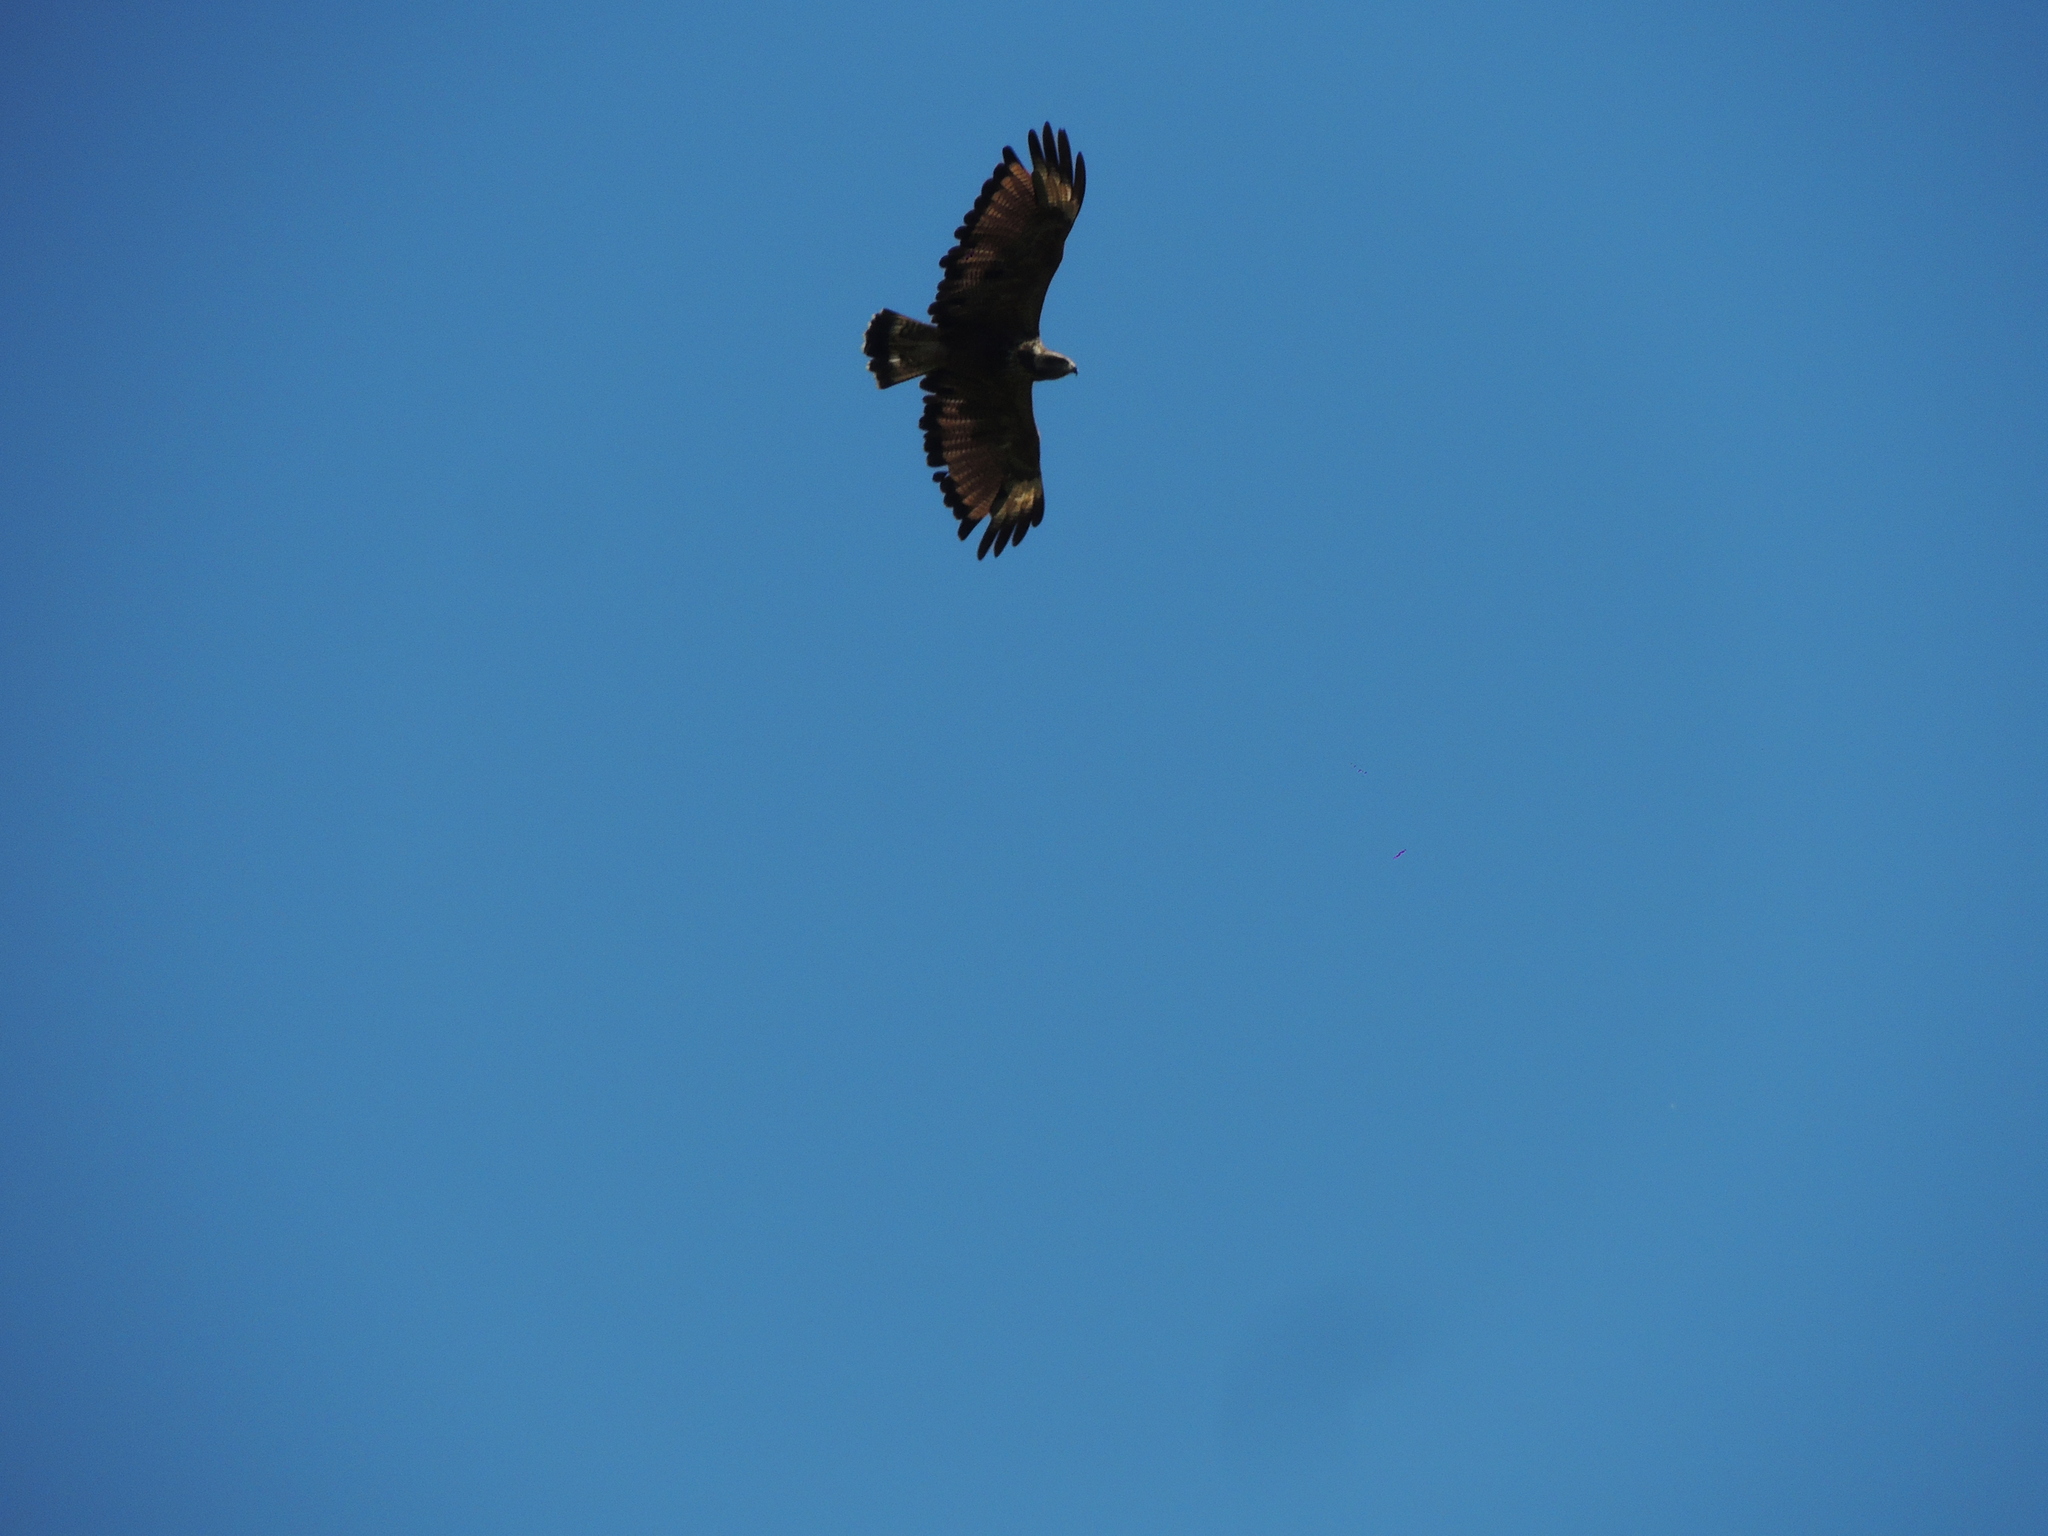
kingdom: Animalia
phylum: Chordata
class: Aves
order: Accipitriformes
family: Accipitridae
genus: Buteogallus
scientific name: Buteogallus meridionalis
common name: Savanna hawk
